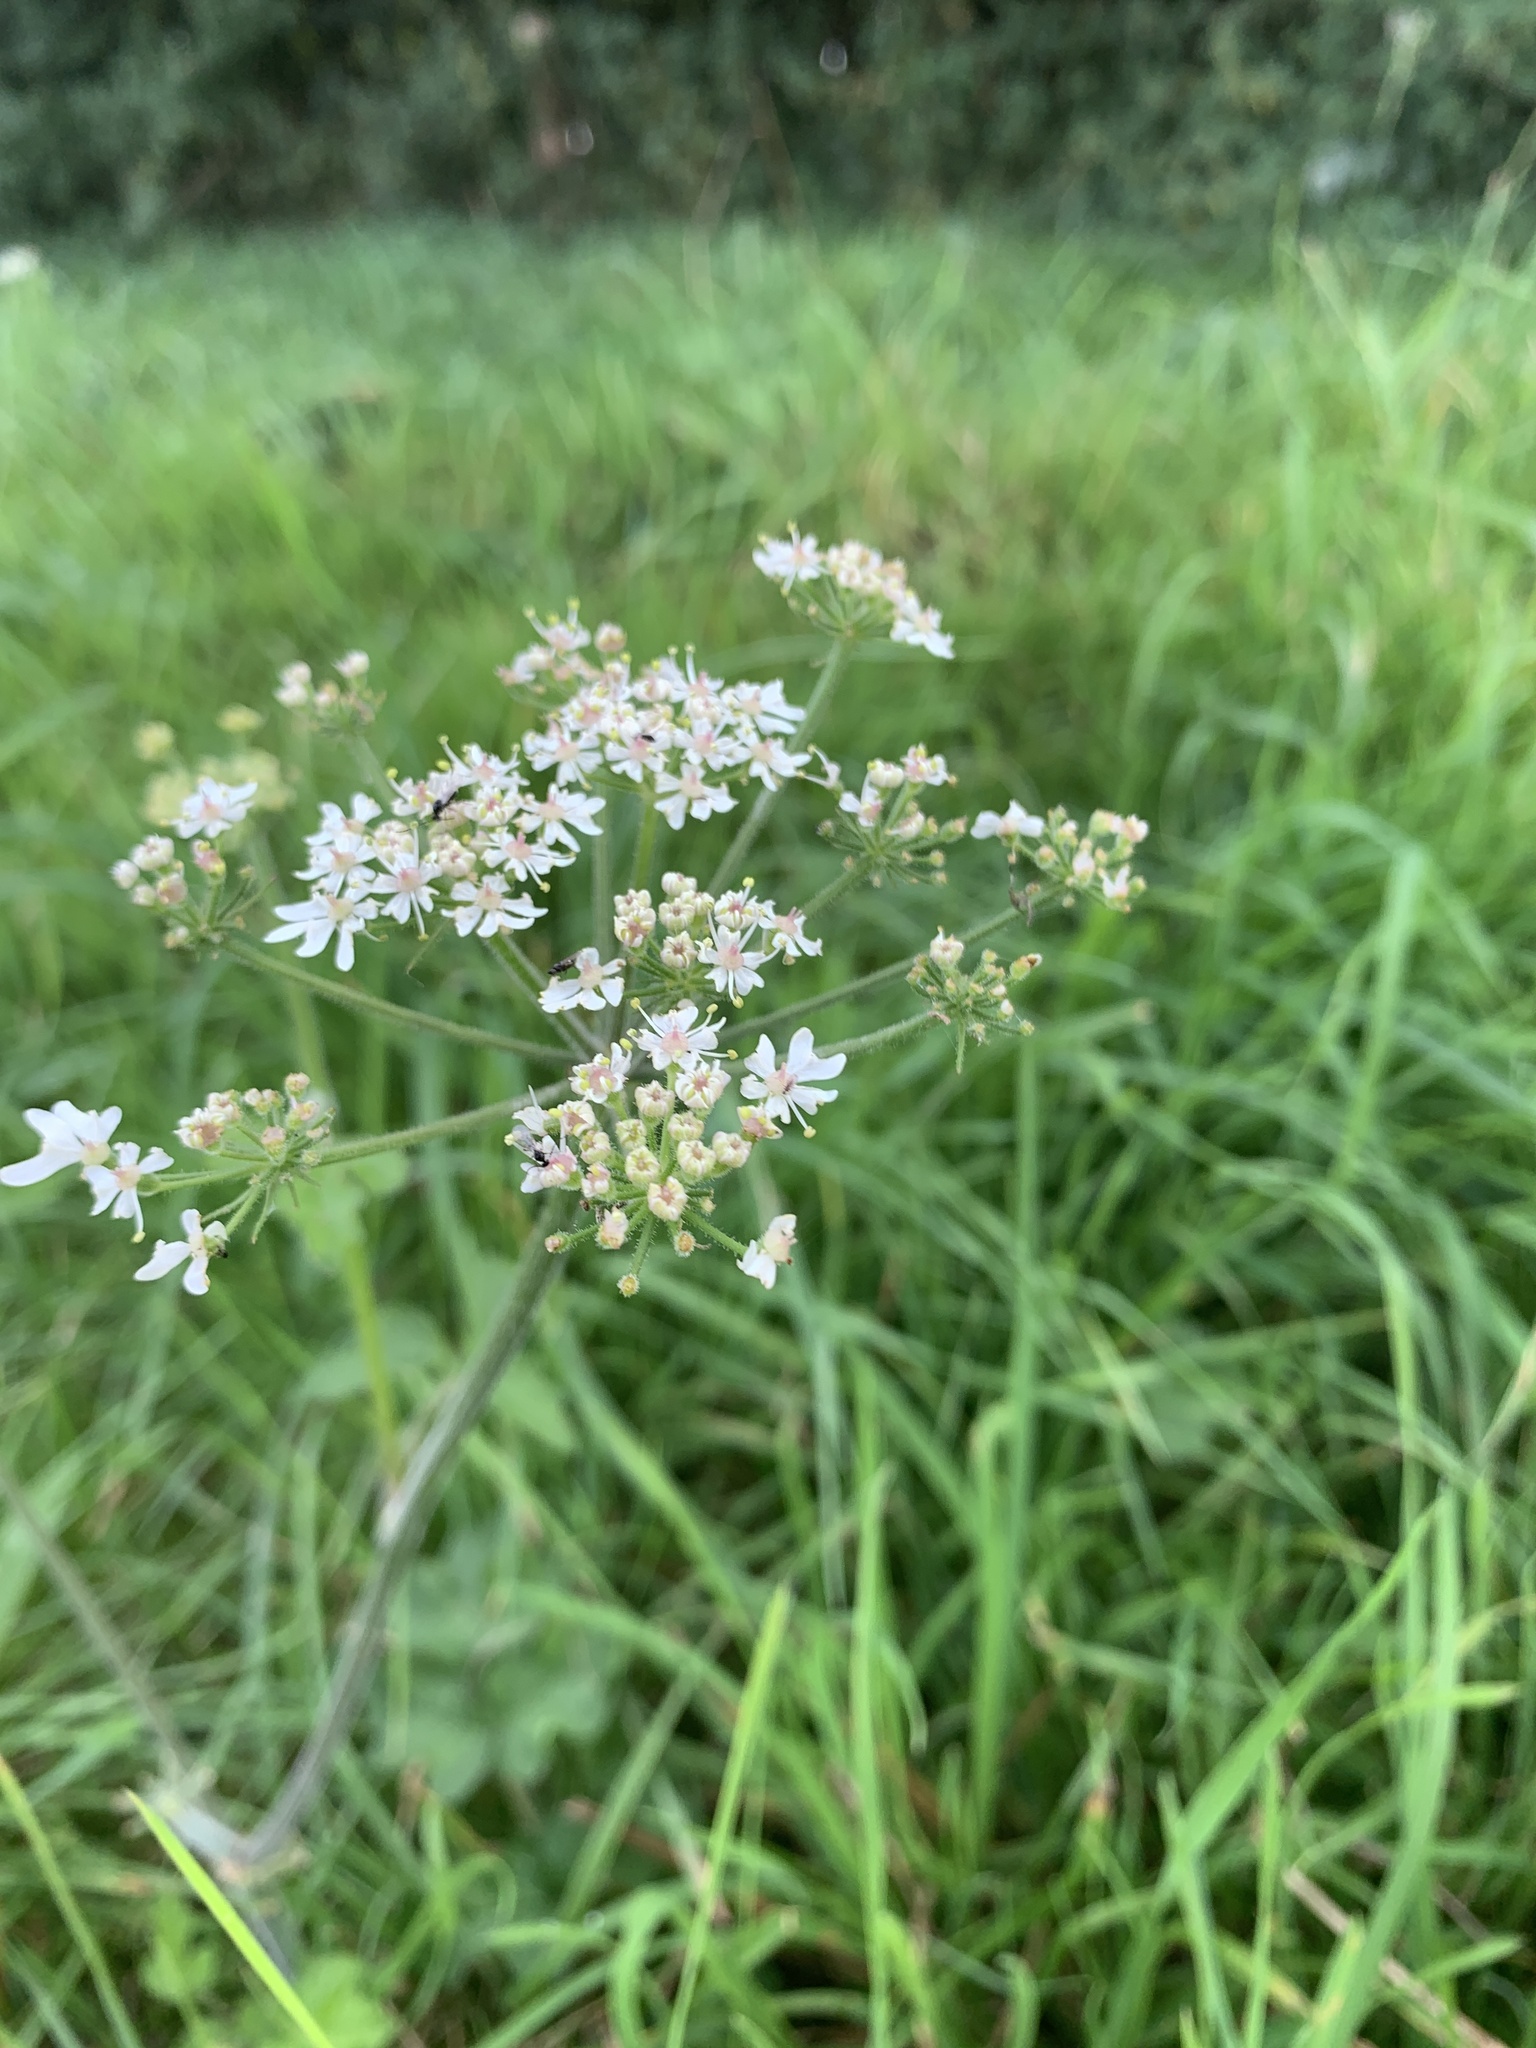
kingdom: Plantae
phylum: Tracheophyta
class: Magnoliopsida
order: Apiales
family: Apiaceae
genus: Heracleum
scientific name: Heracleum sphondylium
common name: Hogweed
